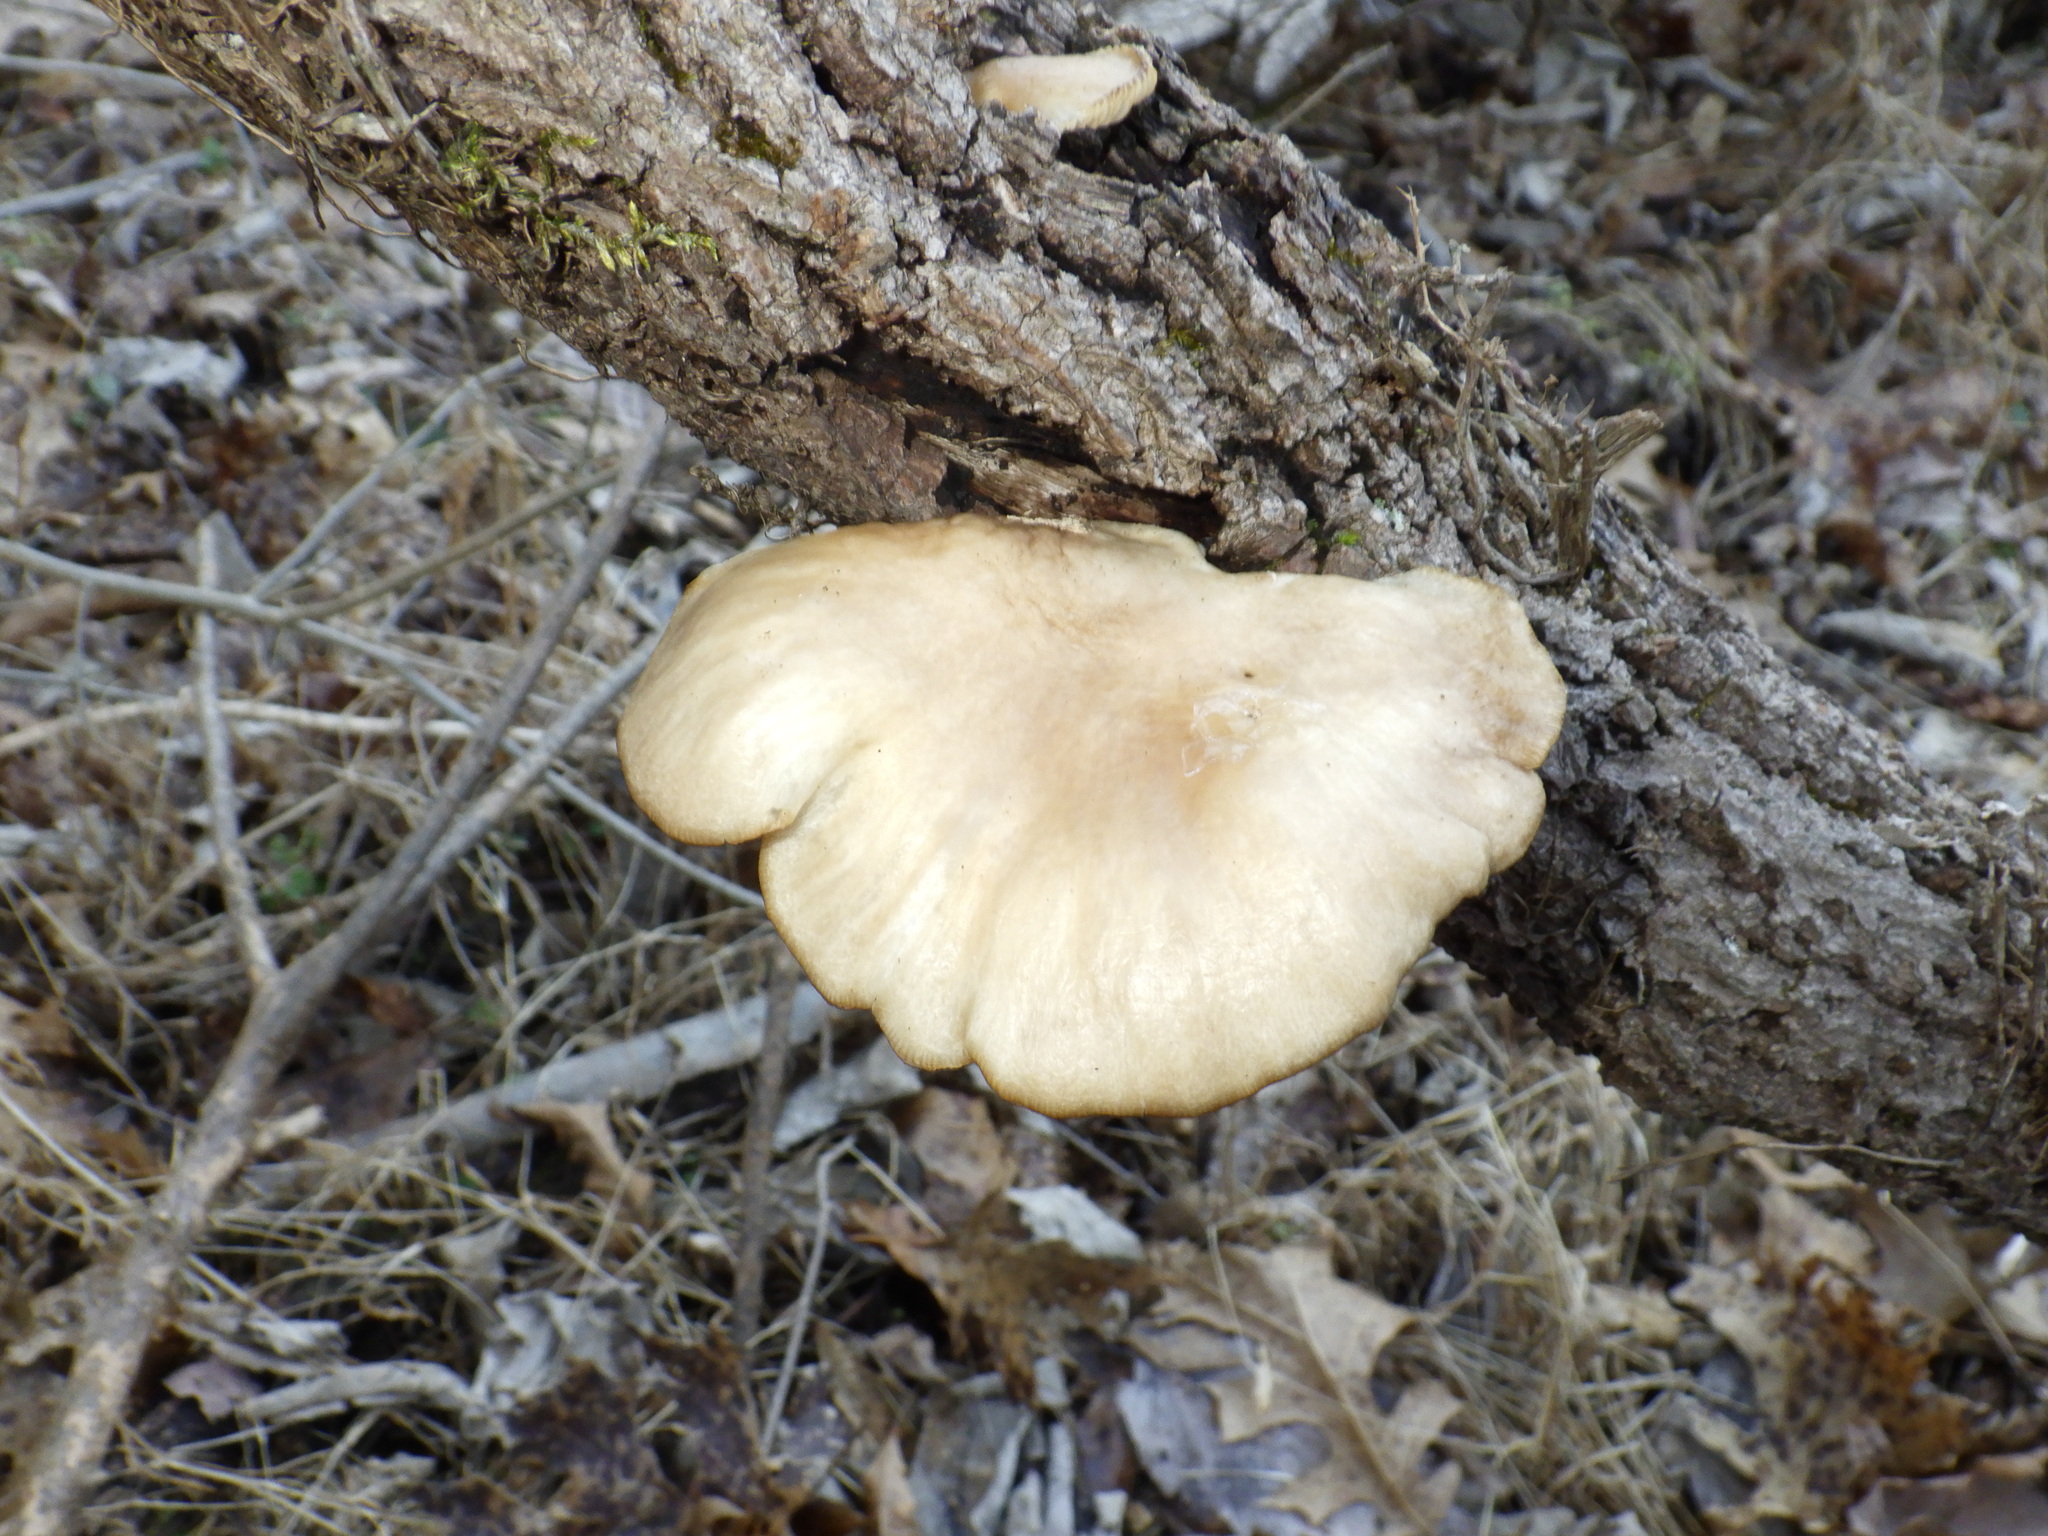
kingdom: Fungi
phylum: Basidiomycota
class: Agaricomycetes
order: Agaricales
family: Pleurotaceae
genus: Pleurotus
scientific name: Pleurotus ostreatus
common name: Oyster mushroom
